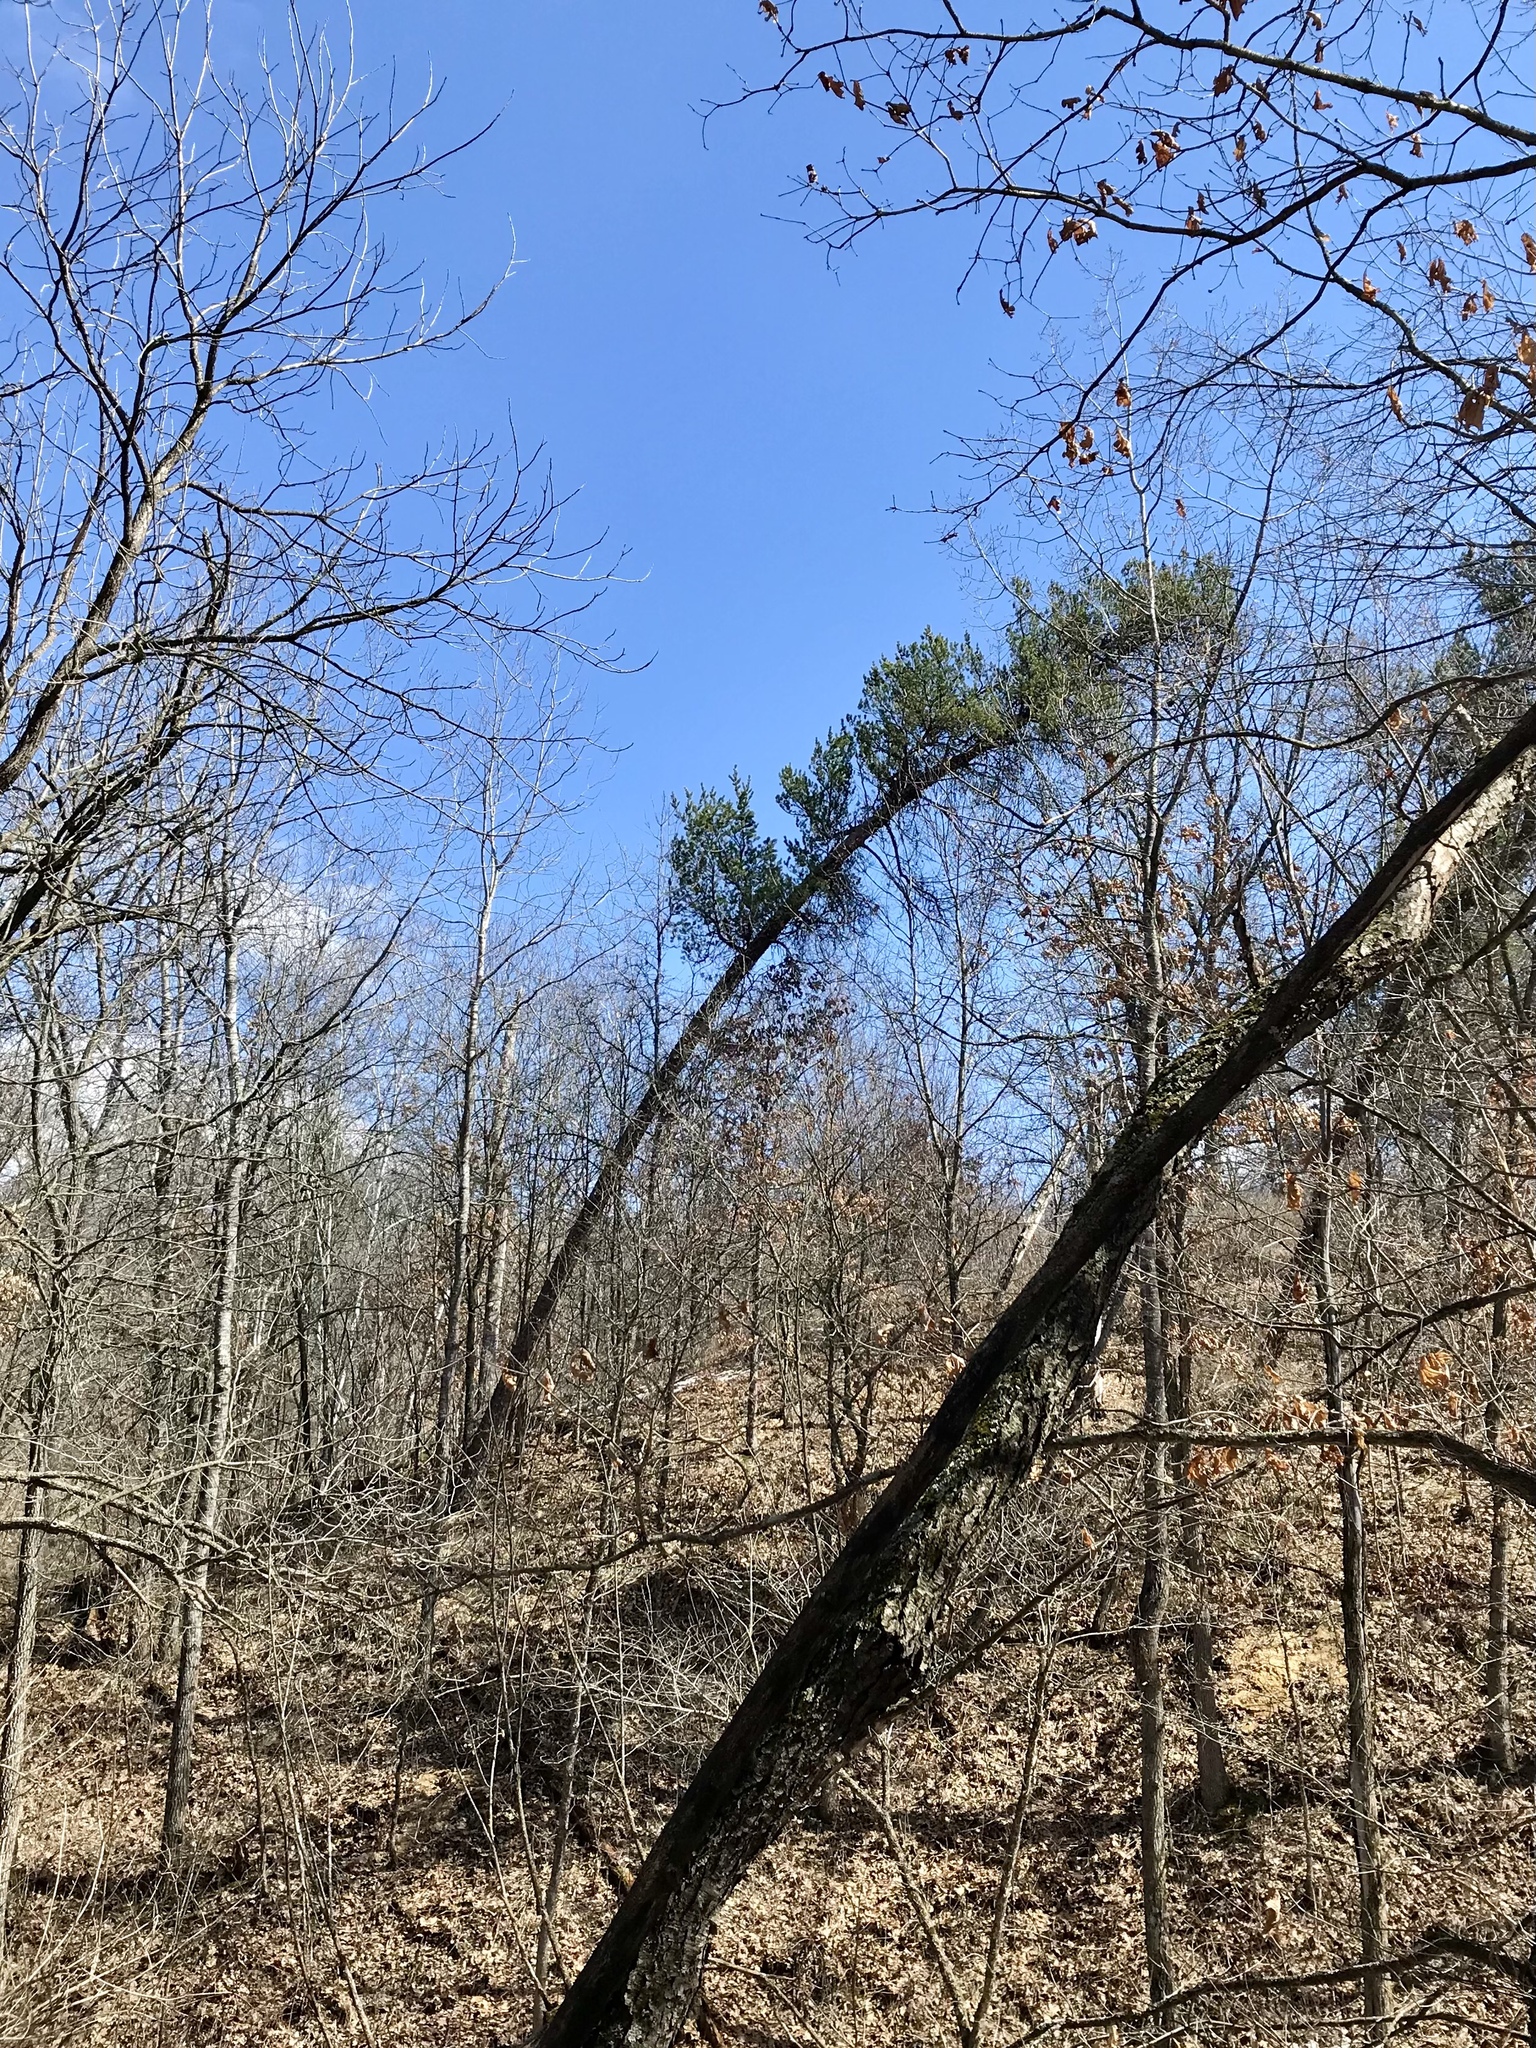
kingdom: Plantae
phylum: Tracheophyta
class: Pinopsida
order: Pinales
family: Pinaceae
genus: Pinus
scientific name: Pinus banksiana
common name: Jack pine
